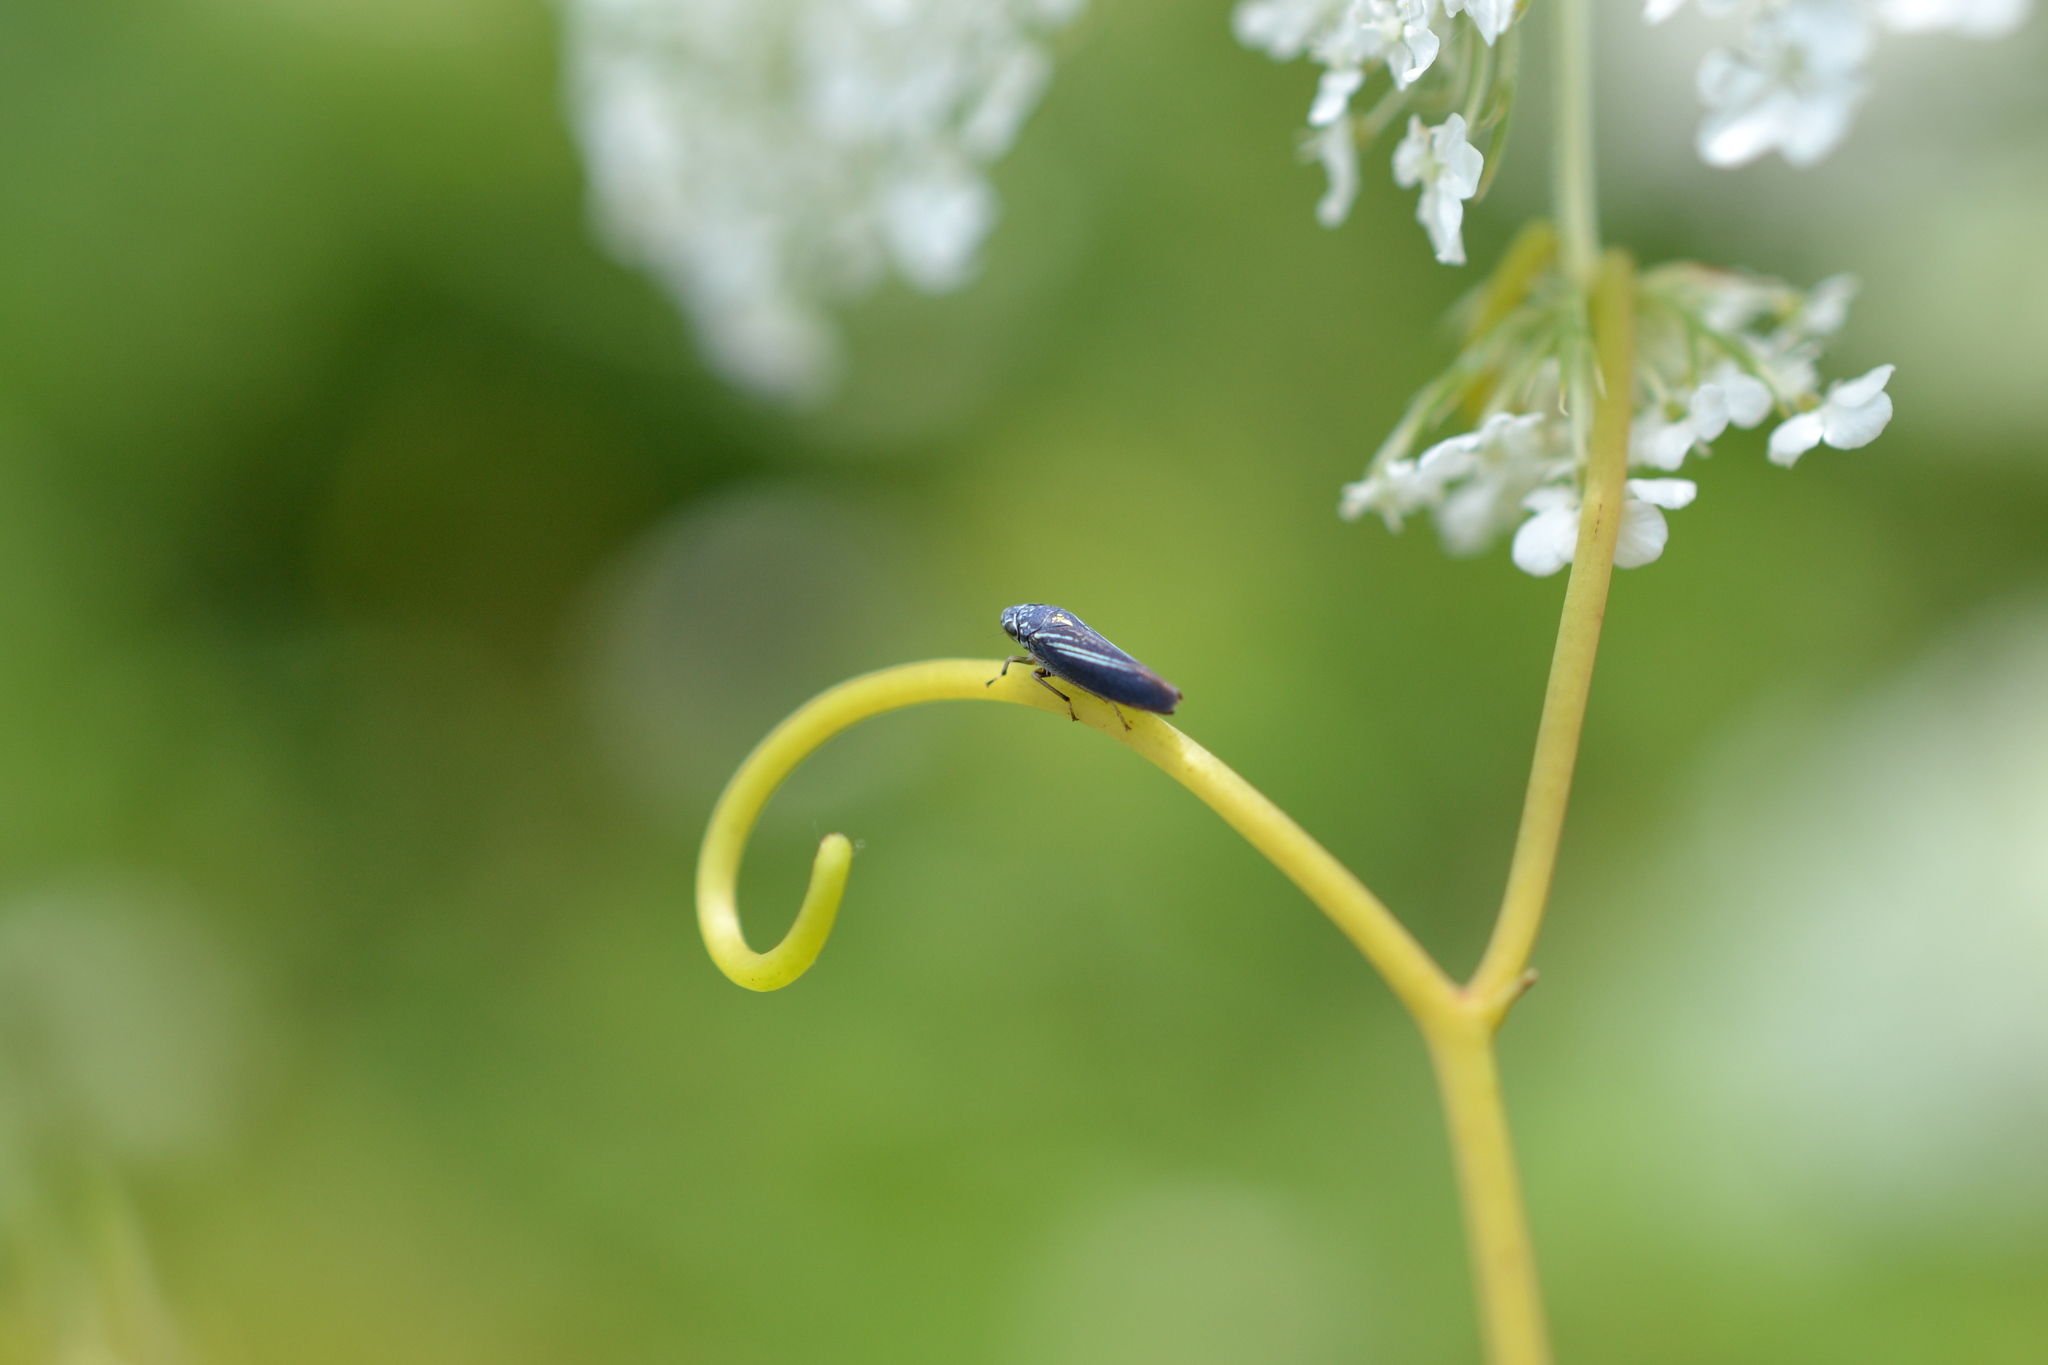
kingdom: Animalia
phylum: Arthropoda
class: Insecta
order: Hemiptera
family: Cicadellidae
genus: Neokolla
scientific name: Neokolla hieroglyphica
